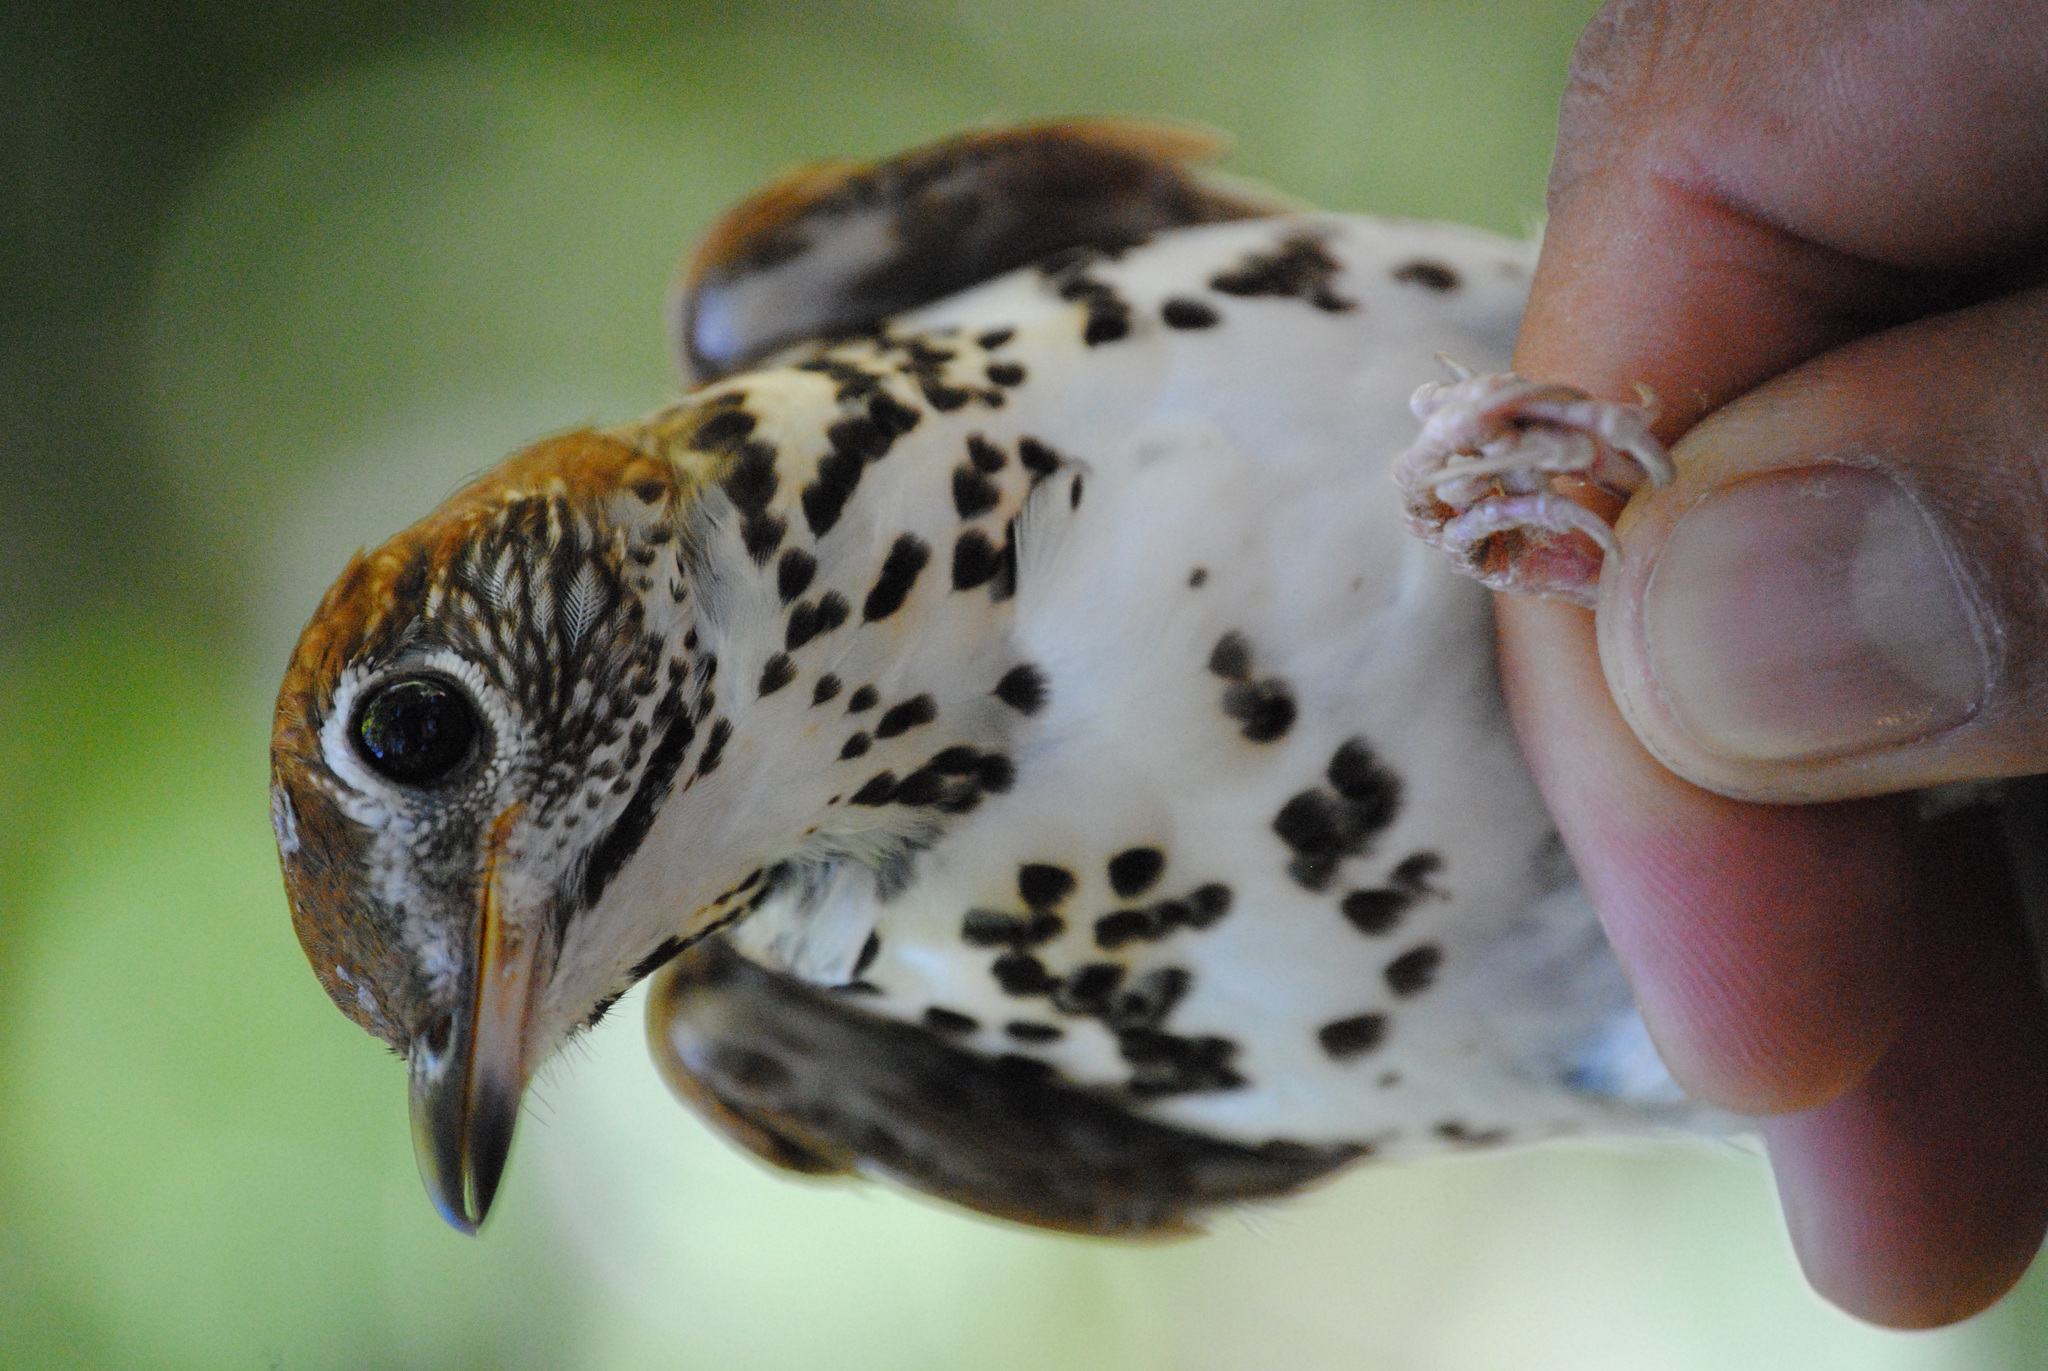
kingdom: Animalia
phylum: Chordata
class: Aves
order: Passeriformes
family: Turdidae
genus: Hylocichla
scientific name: Hylocichla mustelina
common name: Wood thrush
